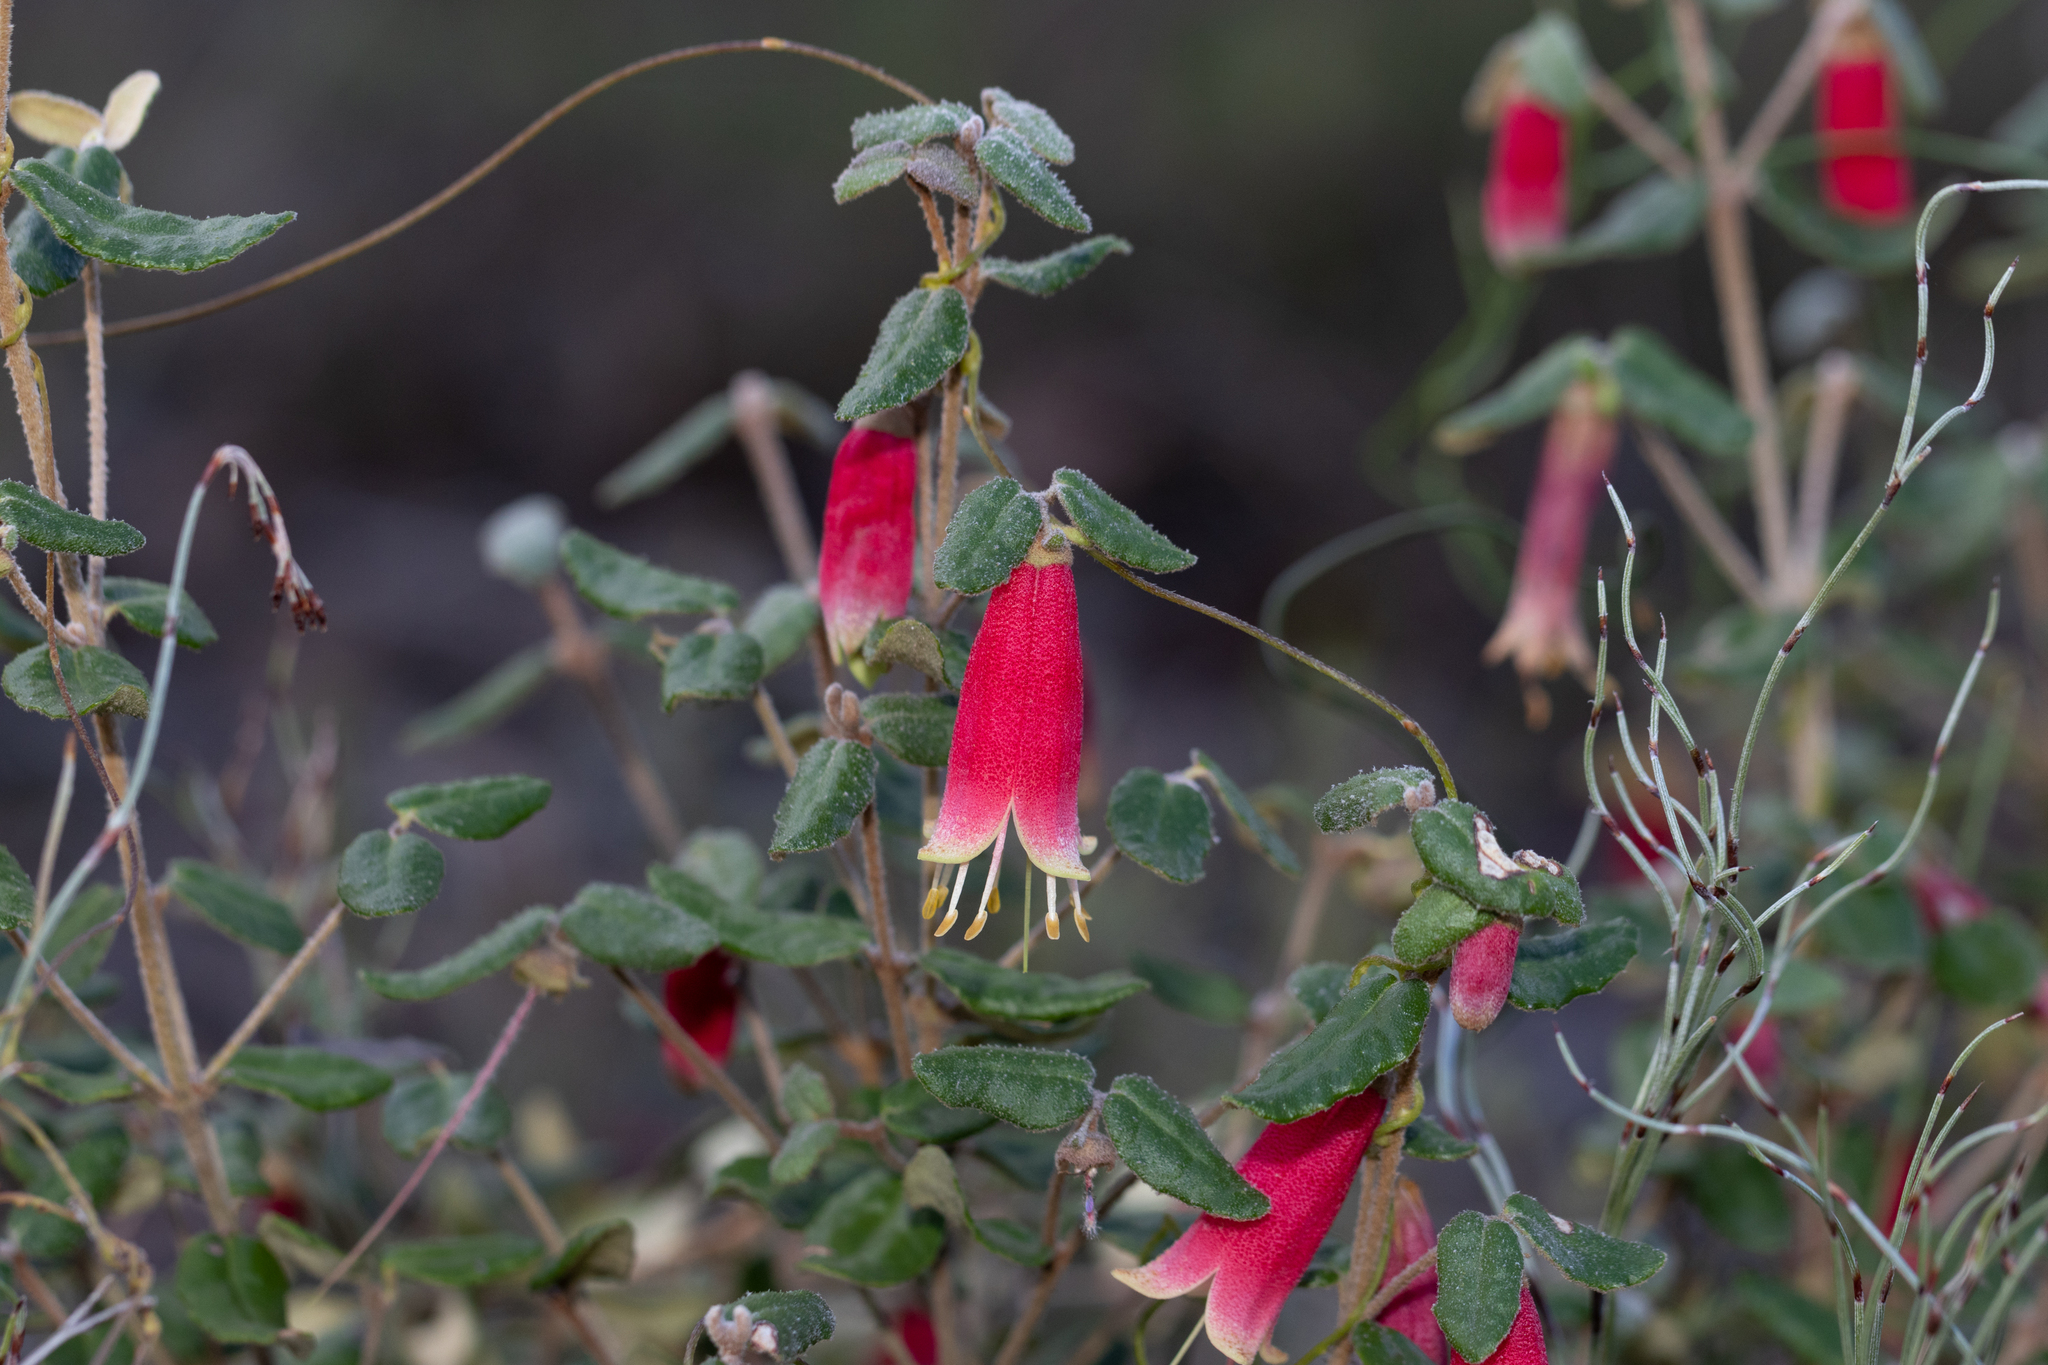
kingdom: Plantae
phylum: Tracheophyta
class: Magnoliopsida
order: Sapindales
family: Rutaceae
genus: Correa
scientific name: Correa reflexa
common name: Common correa
